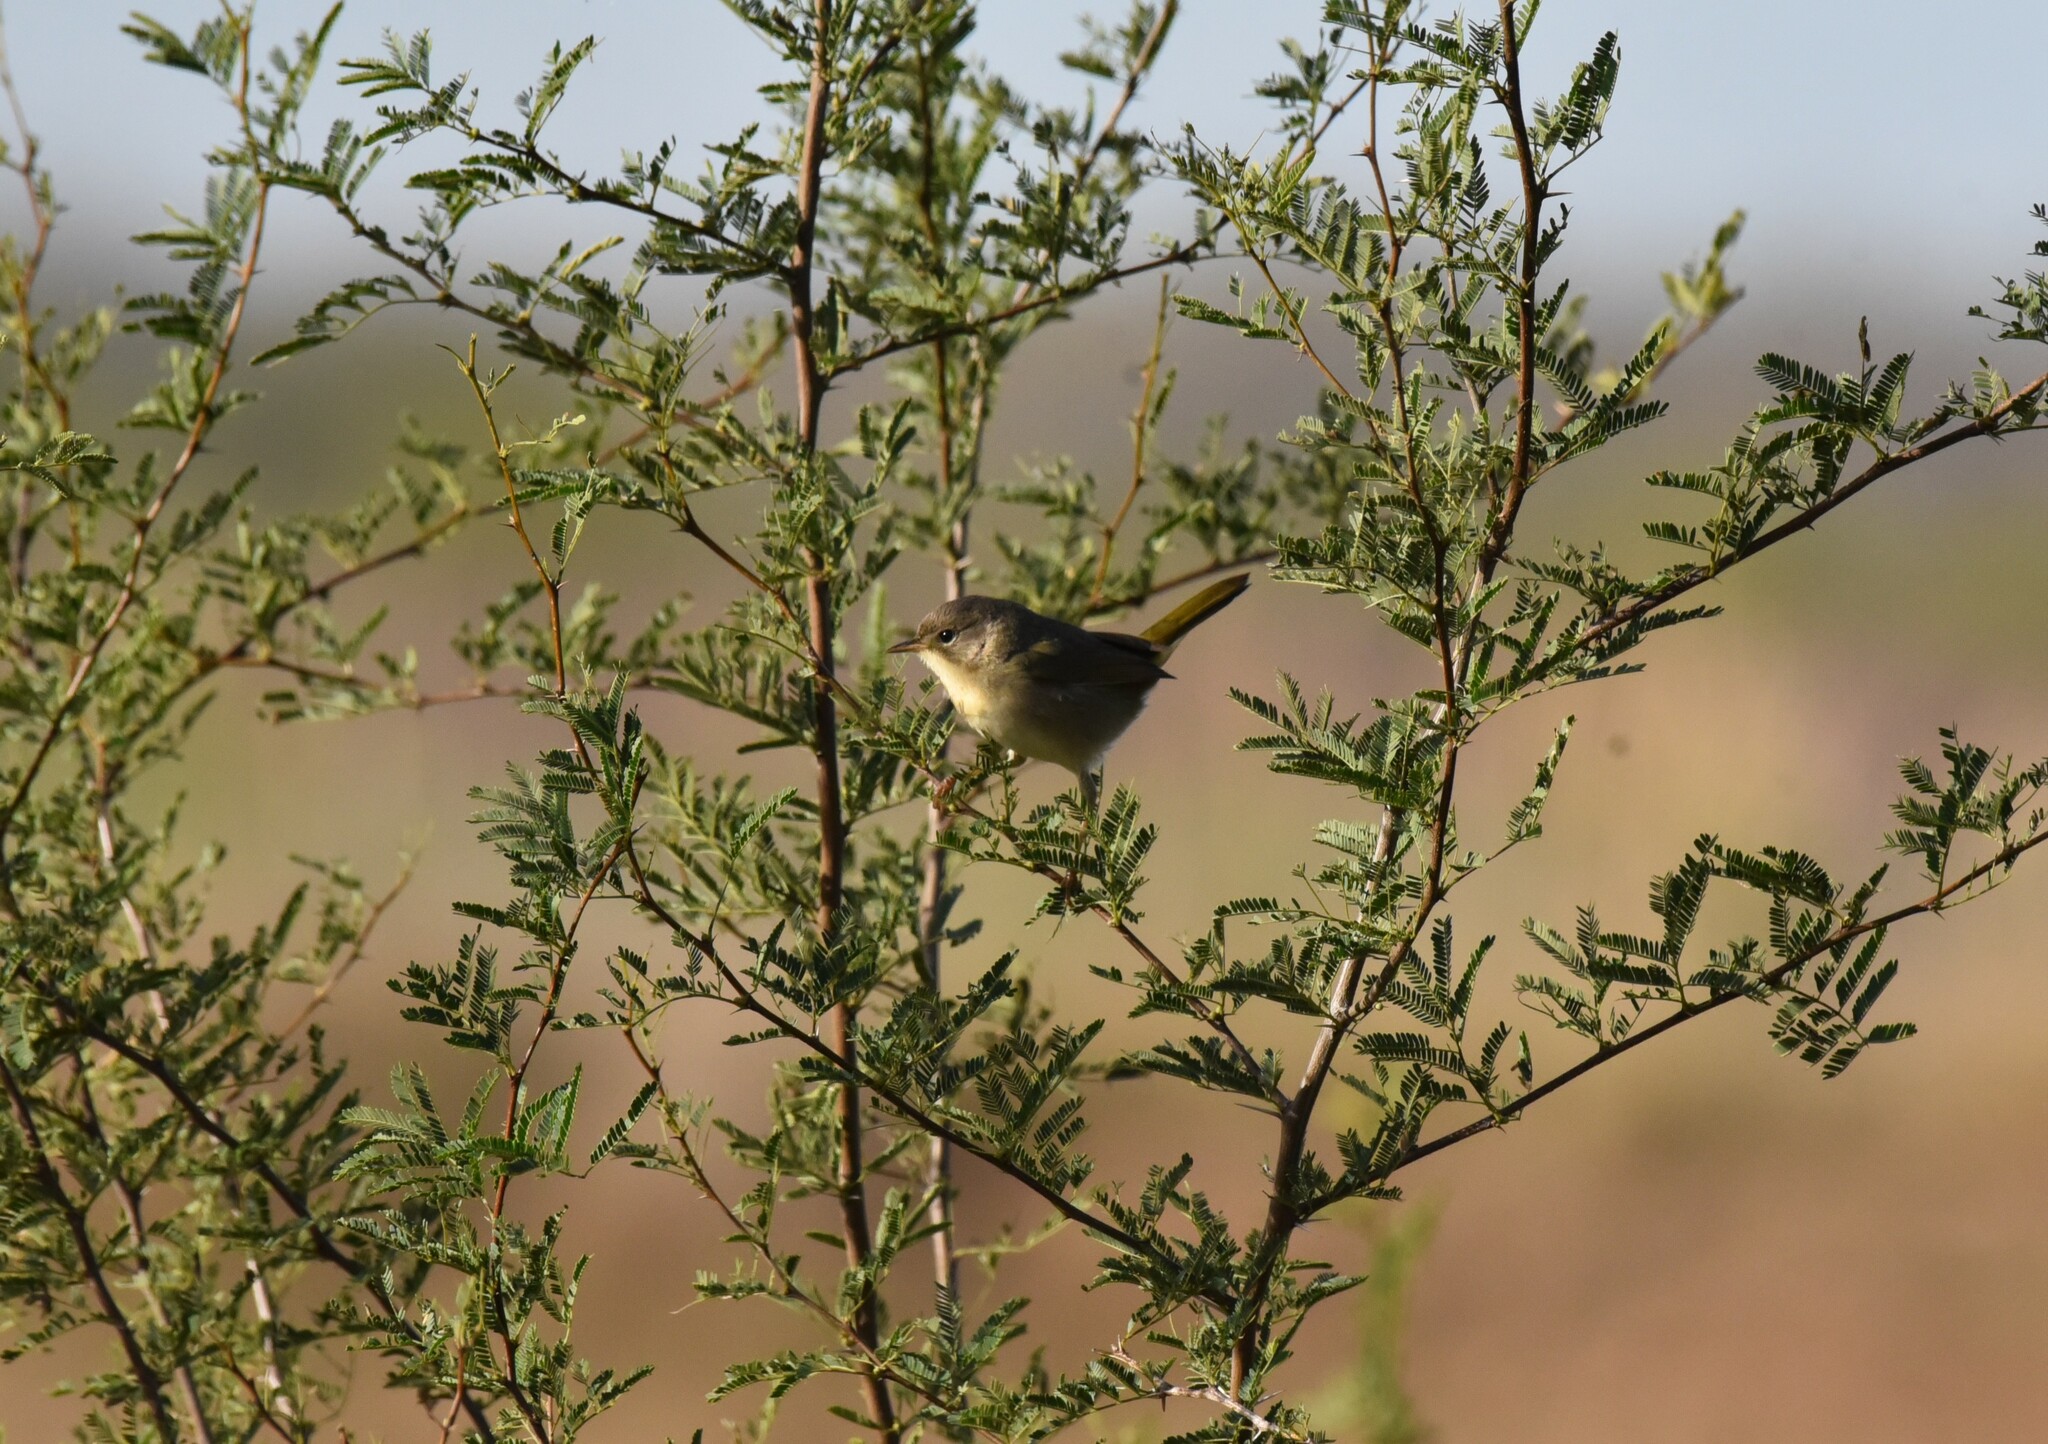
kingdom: Animalia
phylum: Chordata
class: Aves
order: Passeriformes
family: Parulidae
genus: Geothlypis
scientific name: Geothlypis trichas
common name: Common yellowthroat
